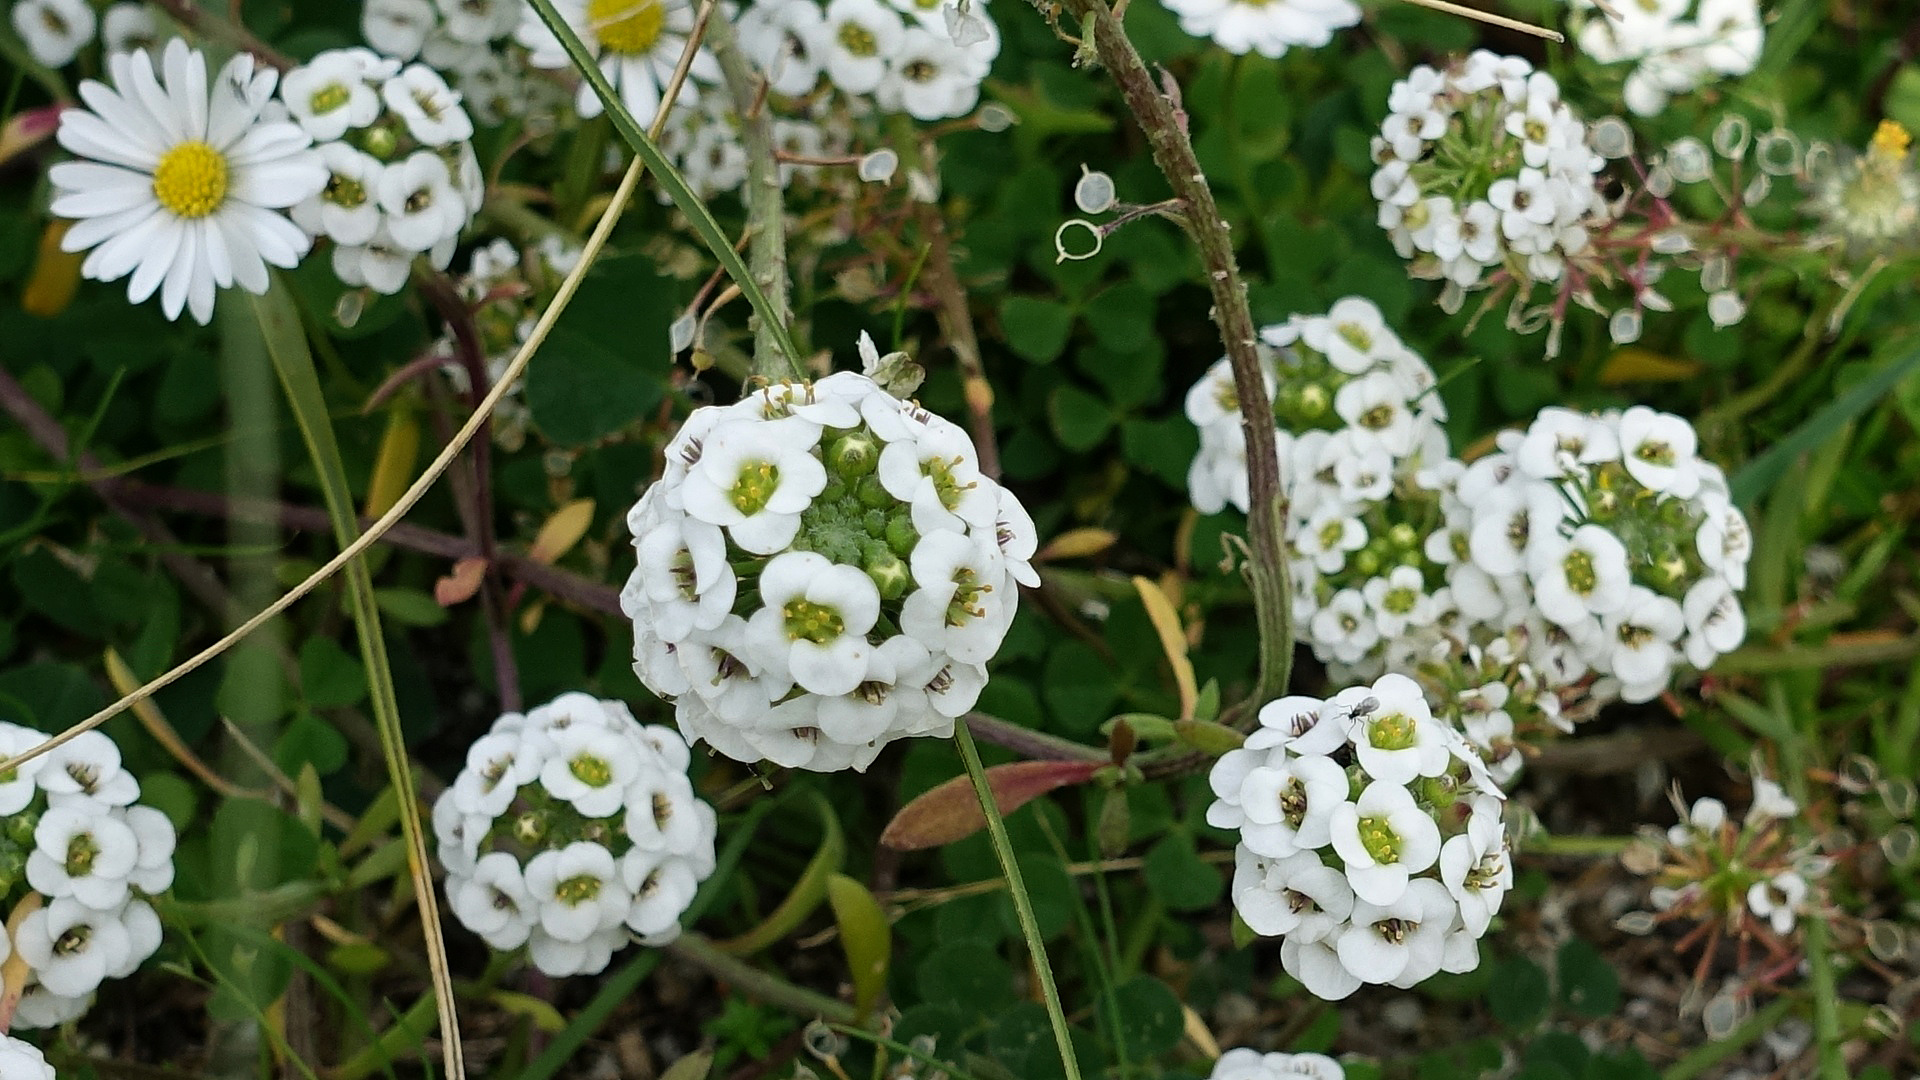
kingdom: Plantae
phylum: Tracheophyta
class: Magnoliopsida
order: Brassicales
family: Brassicaceae
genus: Lobularia
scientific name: Lobularia maritima
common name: Sweet alison
